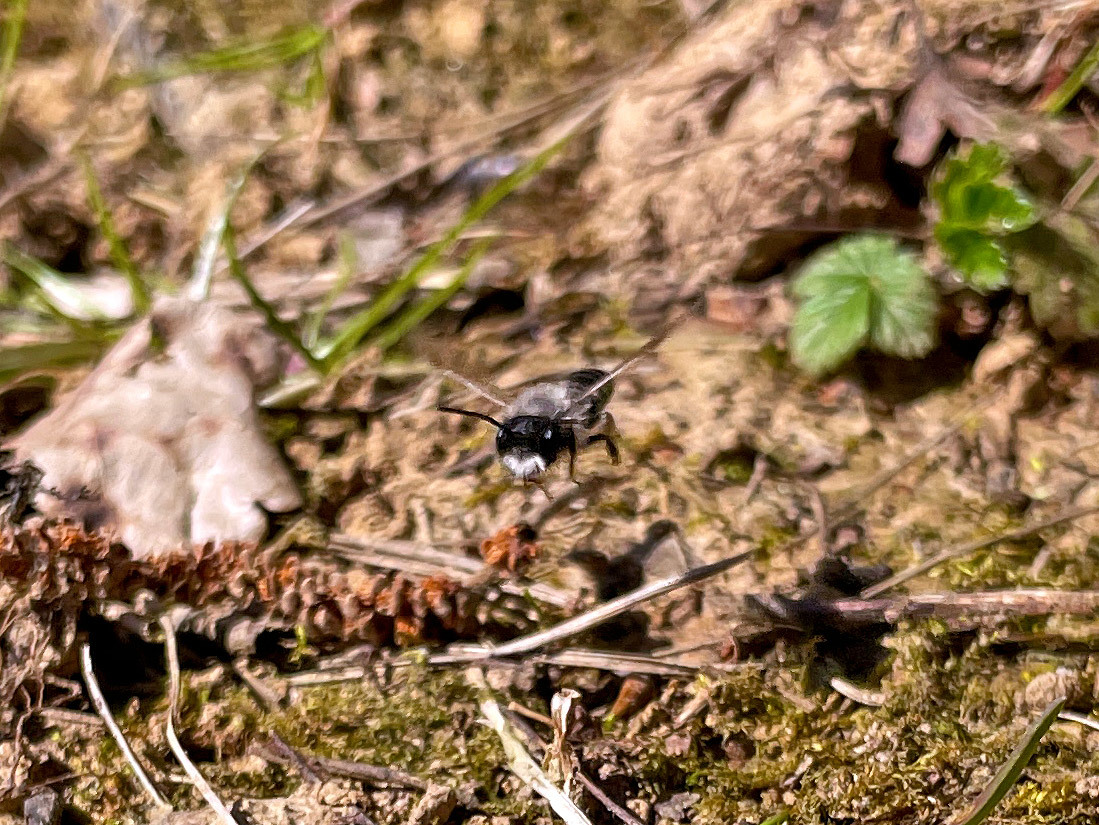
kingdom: Animalia
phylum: Arthropoda
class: Insecta
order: Hymenoptera
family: Andrenidae
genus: Andrena
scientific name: Andrena vaga
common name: Grey-backed mining bee
